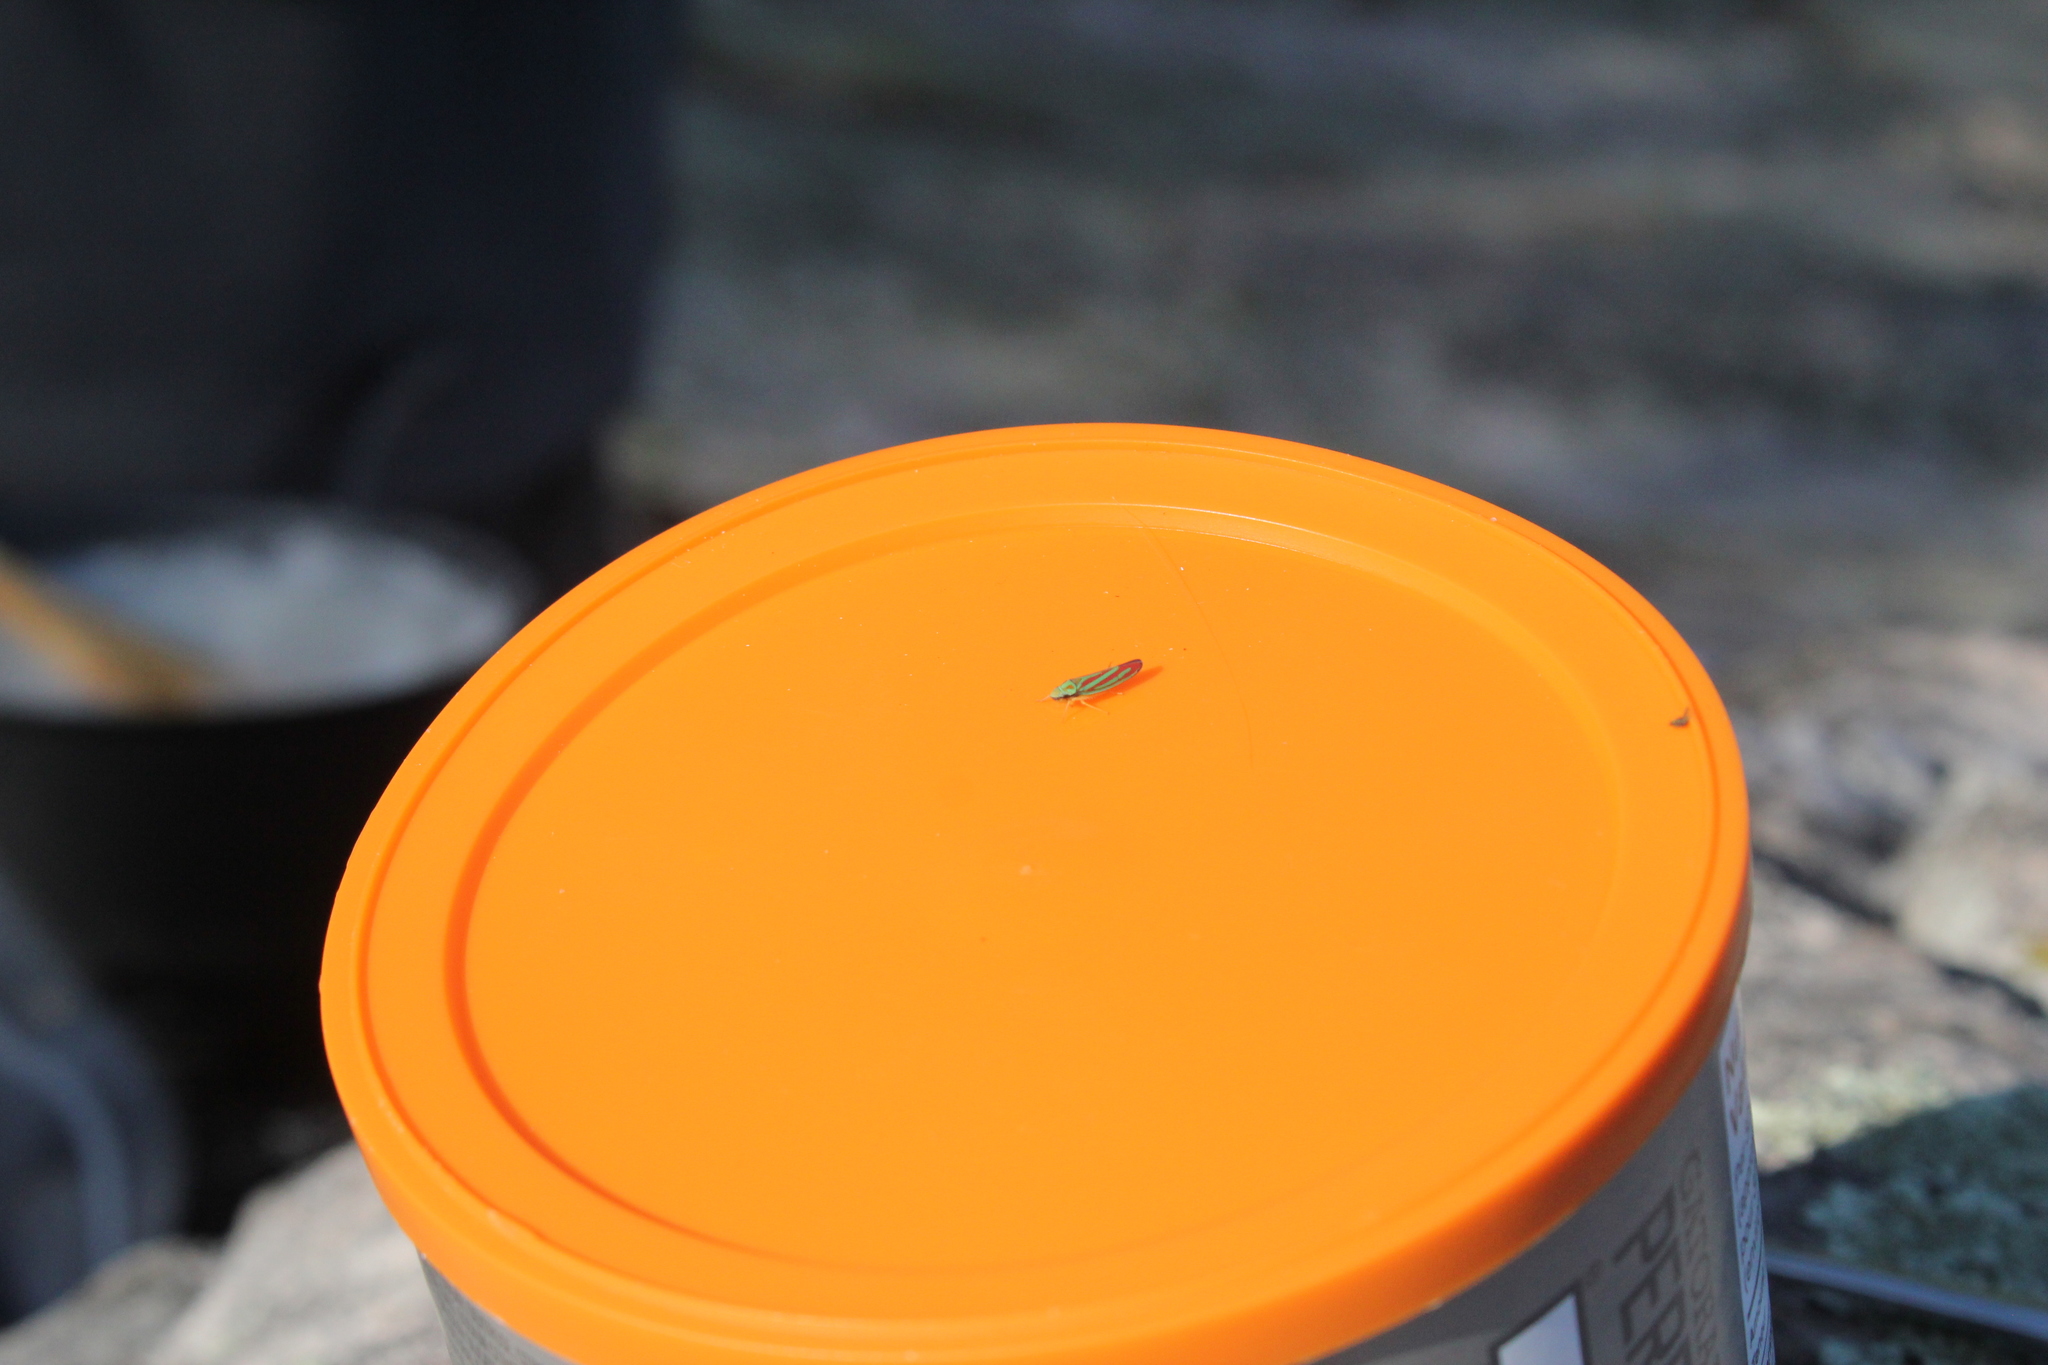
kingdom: Animalia
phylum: Arthropoda
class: Insecta
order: Hemiptera
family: Cicadellidae
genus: Graphocephala
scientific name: Graphocephala coccinea
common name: Candy-striped leafhopper
